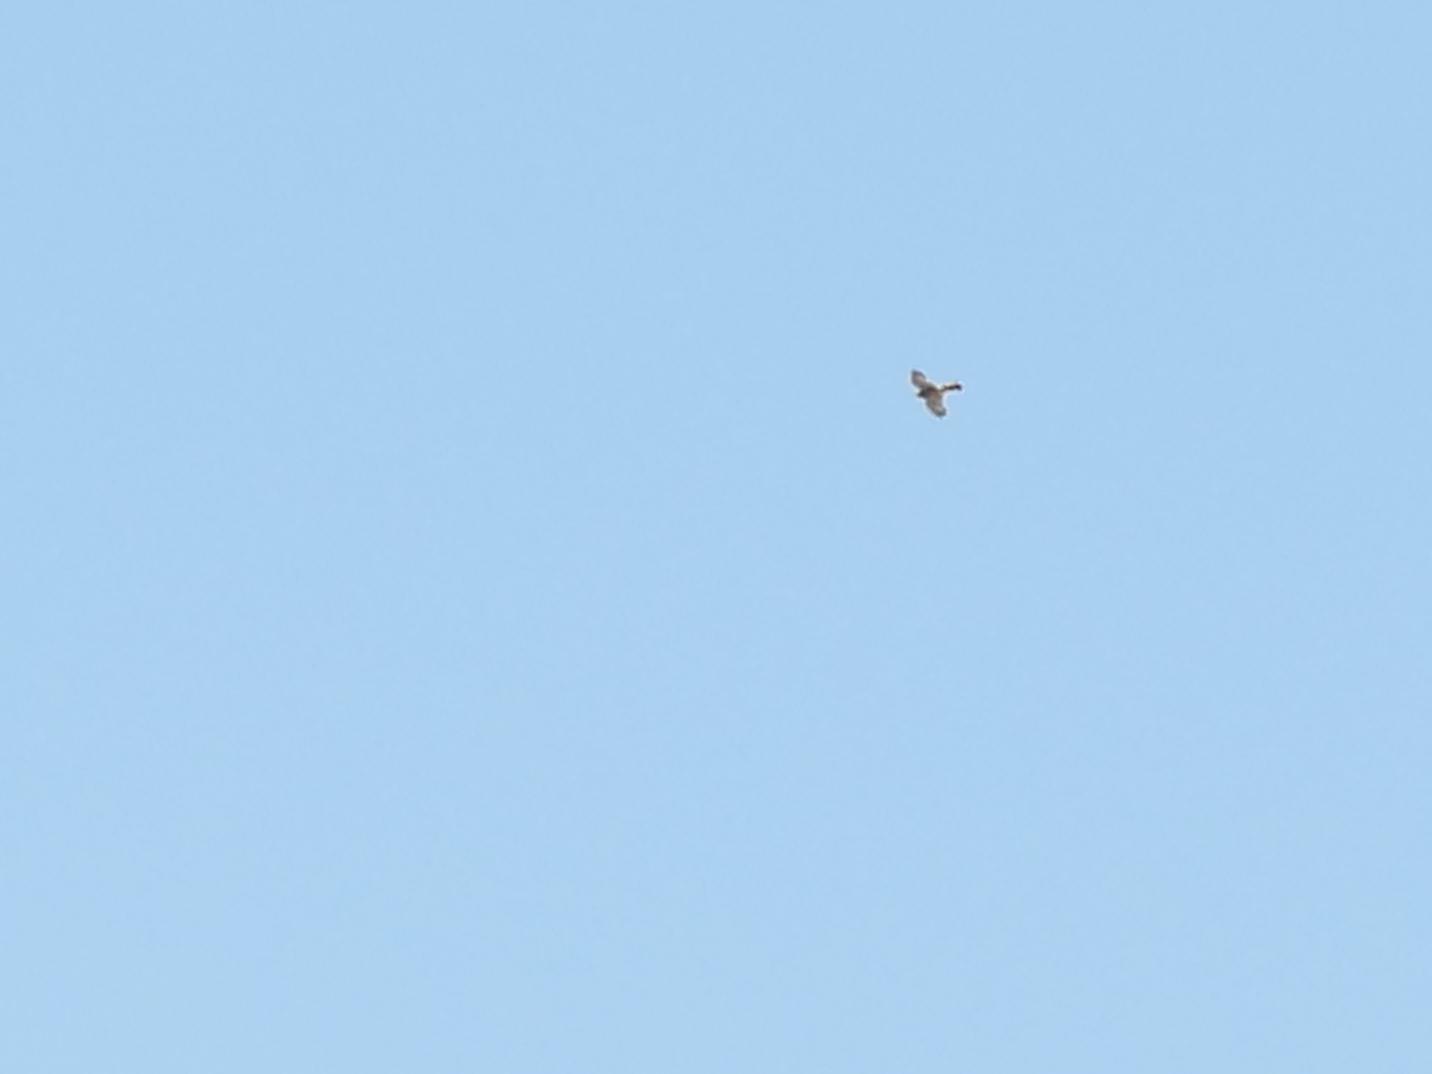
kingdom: Animalia
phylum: Chordata
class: Aves
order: Falconiformes
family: Falconidae
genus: Falco
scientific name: Falco tinnunculus
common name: Common kestrel
